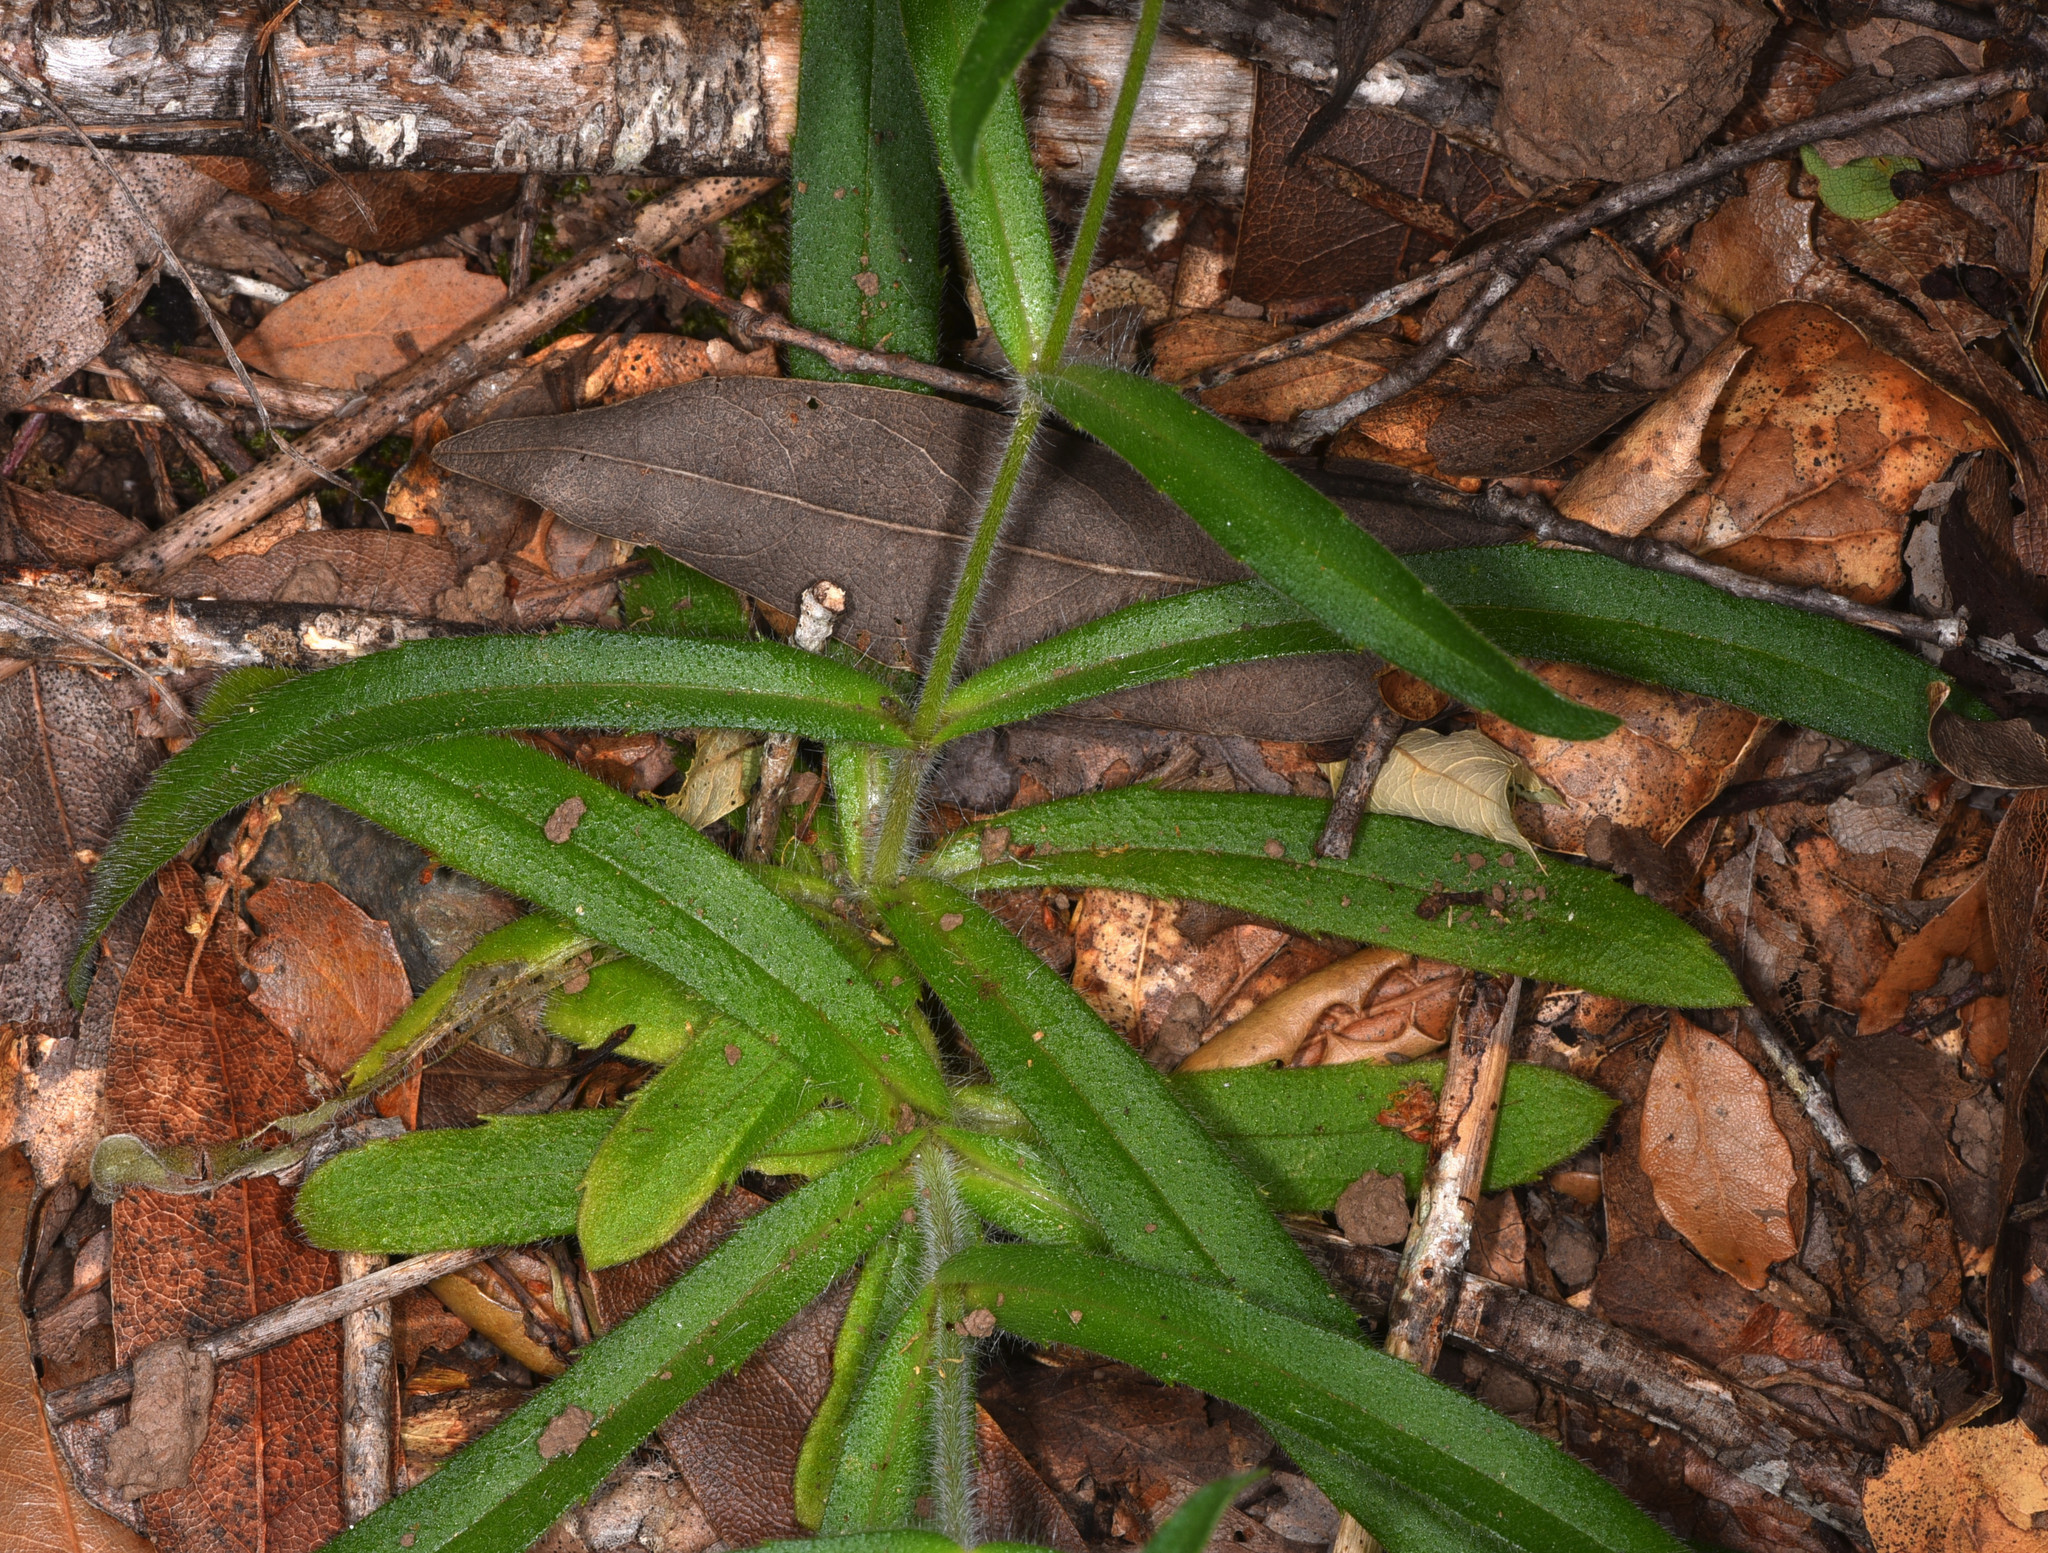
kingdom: Plantae
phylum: Tracheophyta
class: Magnoliopsida
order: Asterales
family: Asteraceae
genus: Anisocarpus
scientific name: Anisocarpus madioides
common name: Woodland madia
